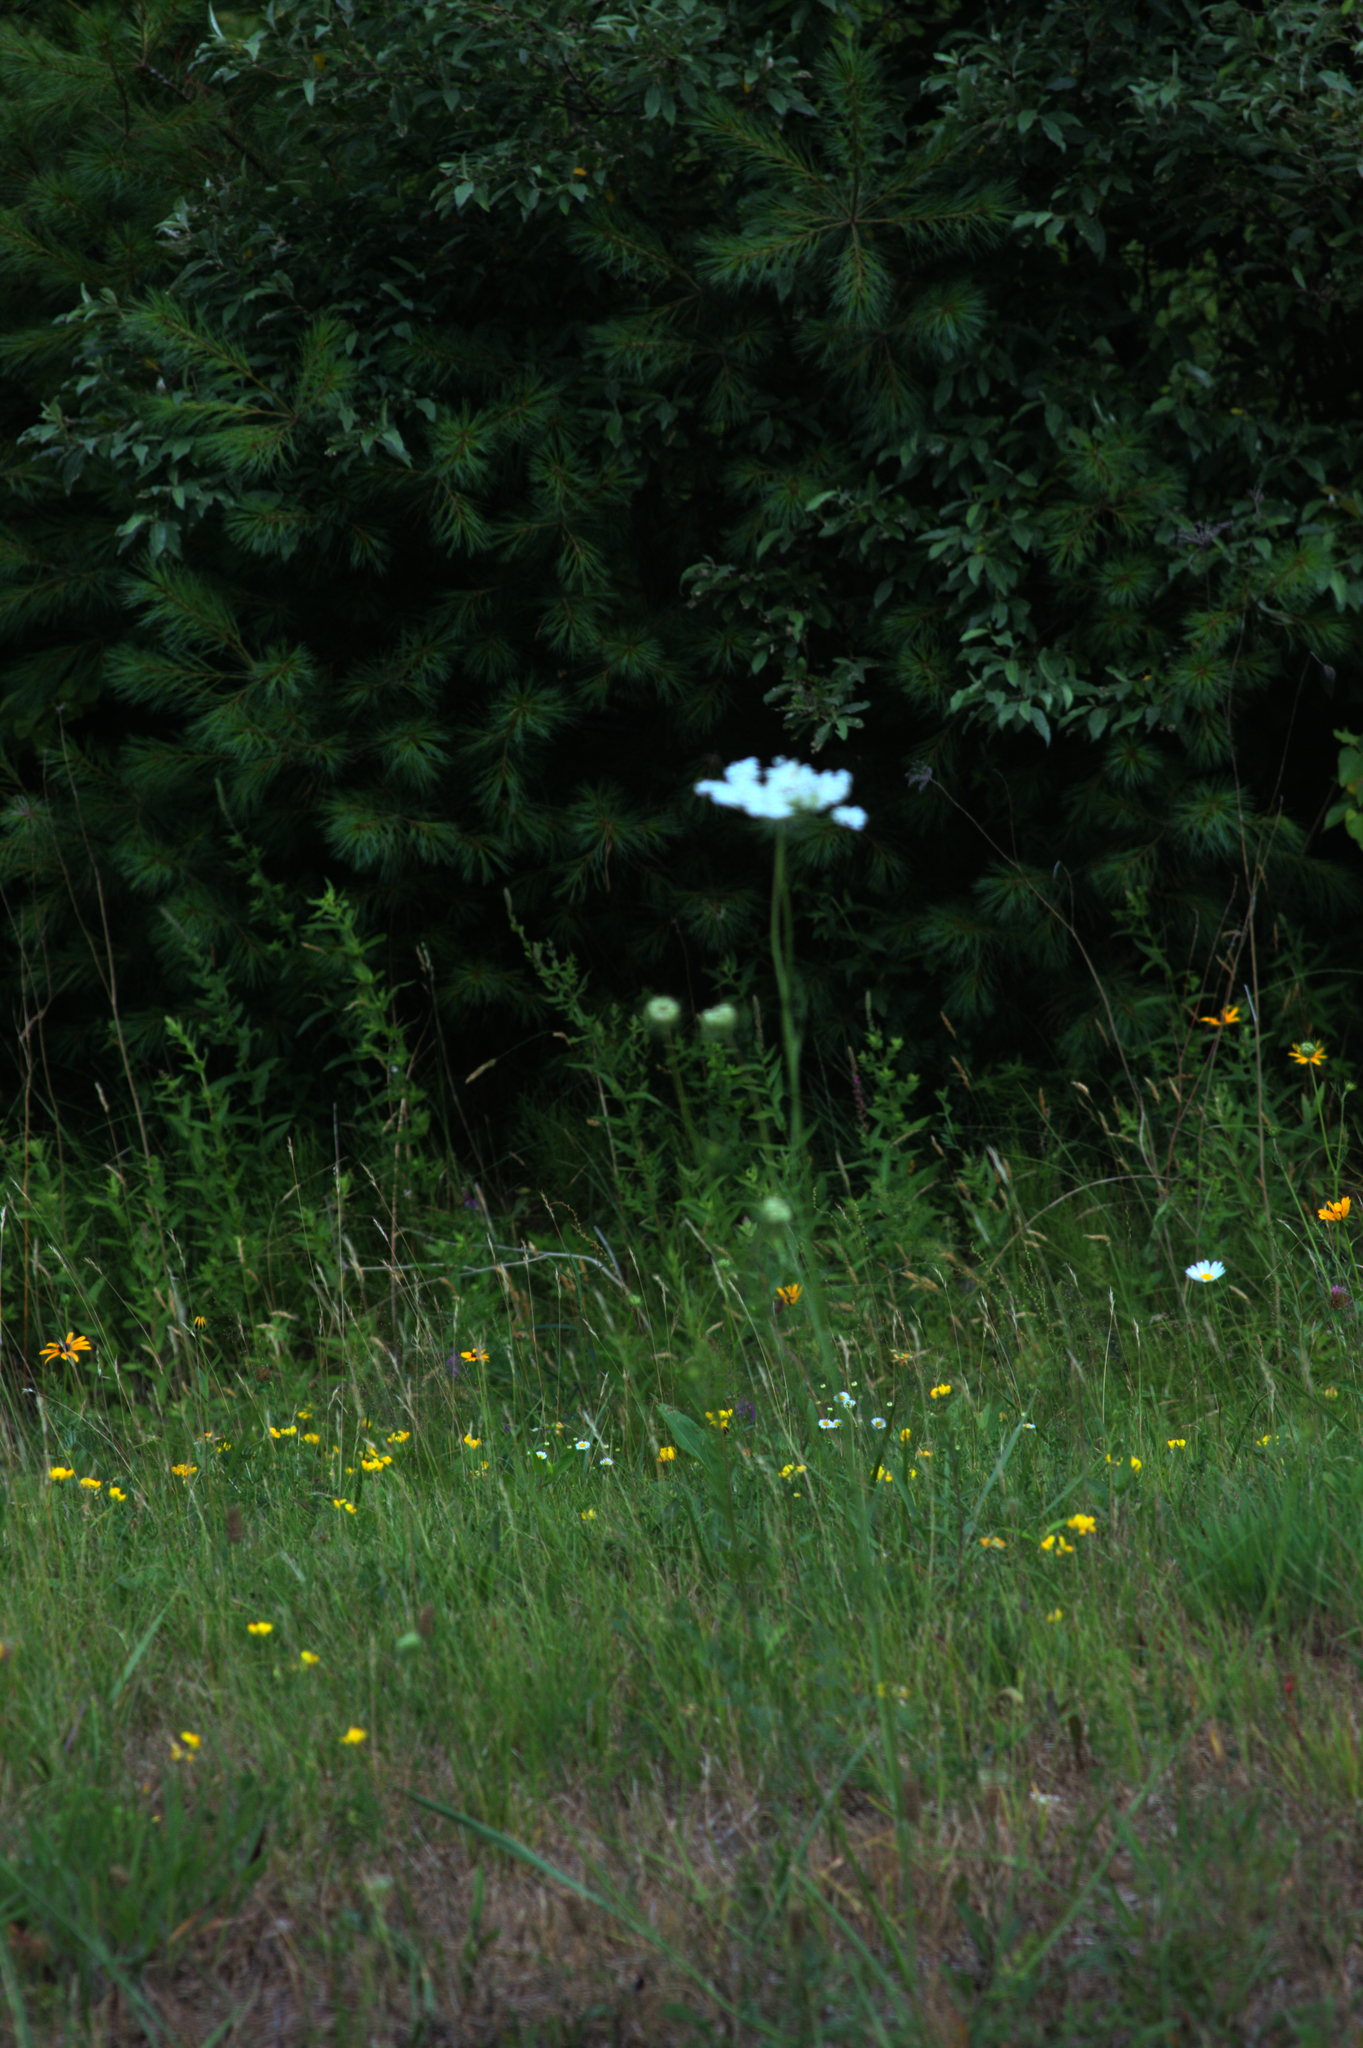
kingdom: Plantae
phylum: Tracheophyta
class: Magnoliopsida
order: Apiales
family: Apiaceae
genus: Daucus
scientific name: Daucus carota
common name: Wild carrot
